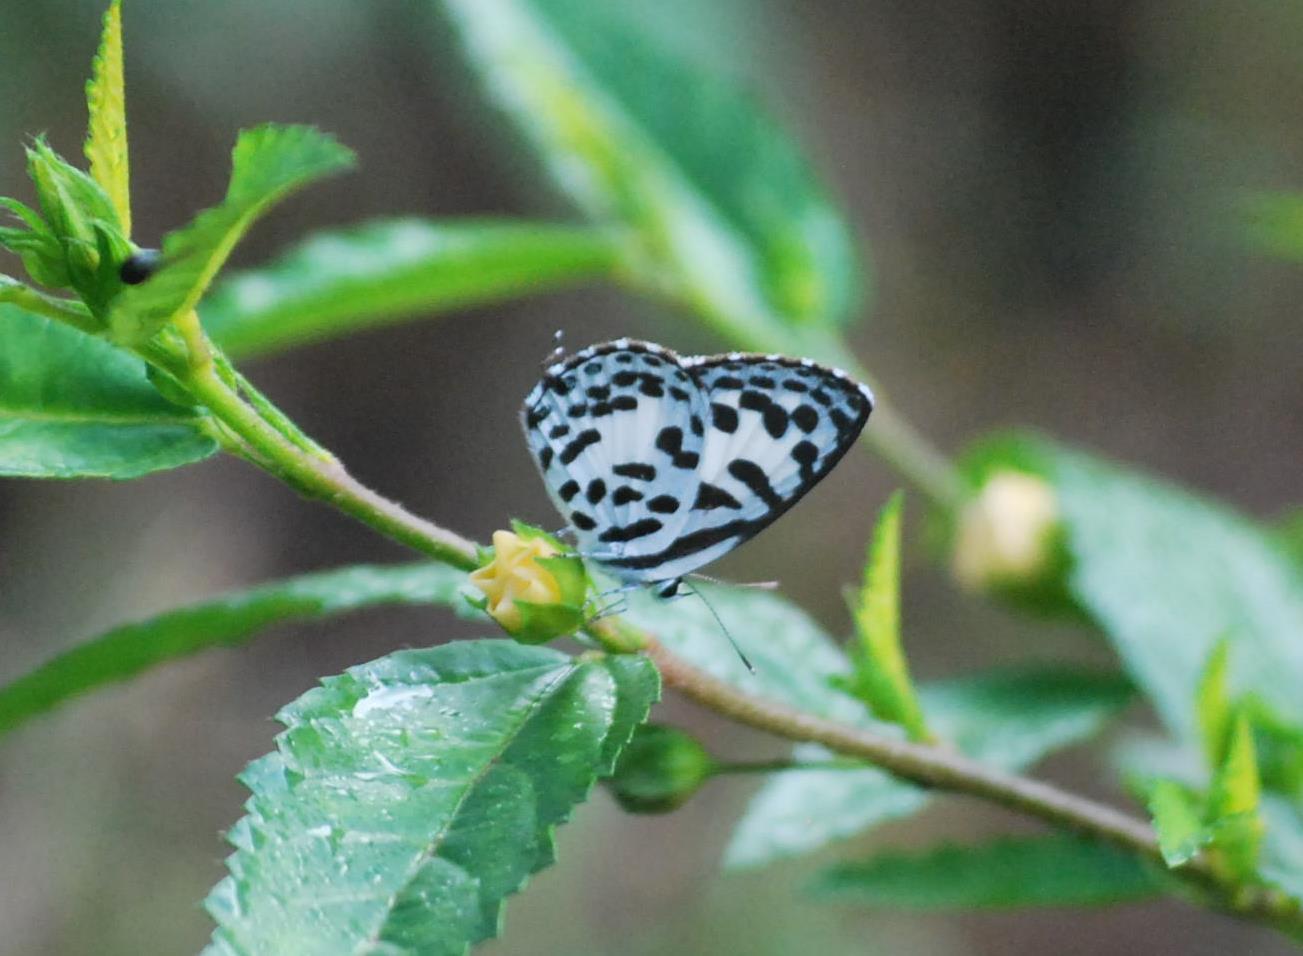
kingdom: Animalia
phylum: Arthropoda
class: Insecta
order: Lepidoptera
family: Lycaenidae
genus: Castalius
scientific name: Castalius rosimon
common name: Common pierrot
